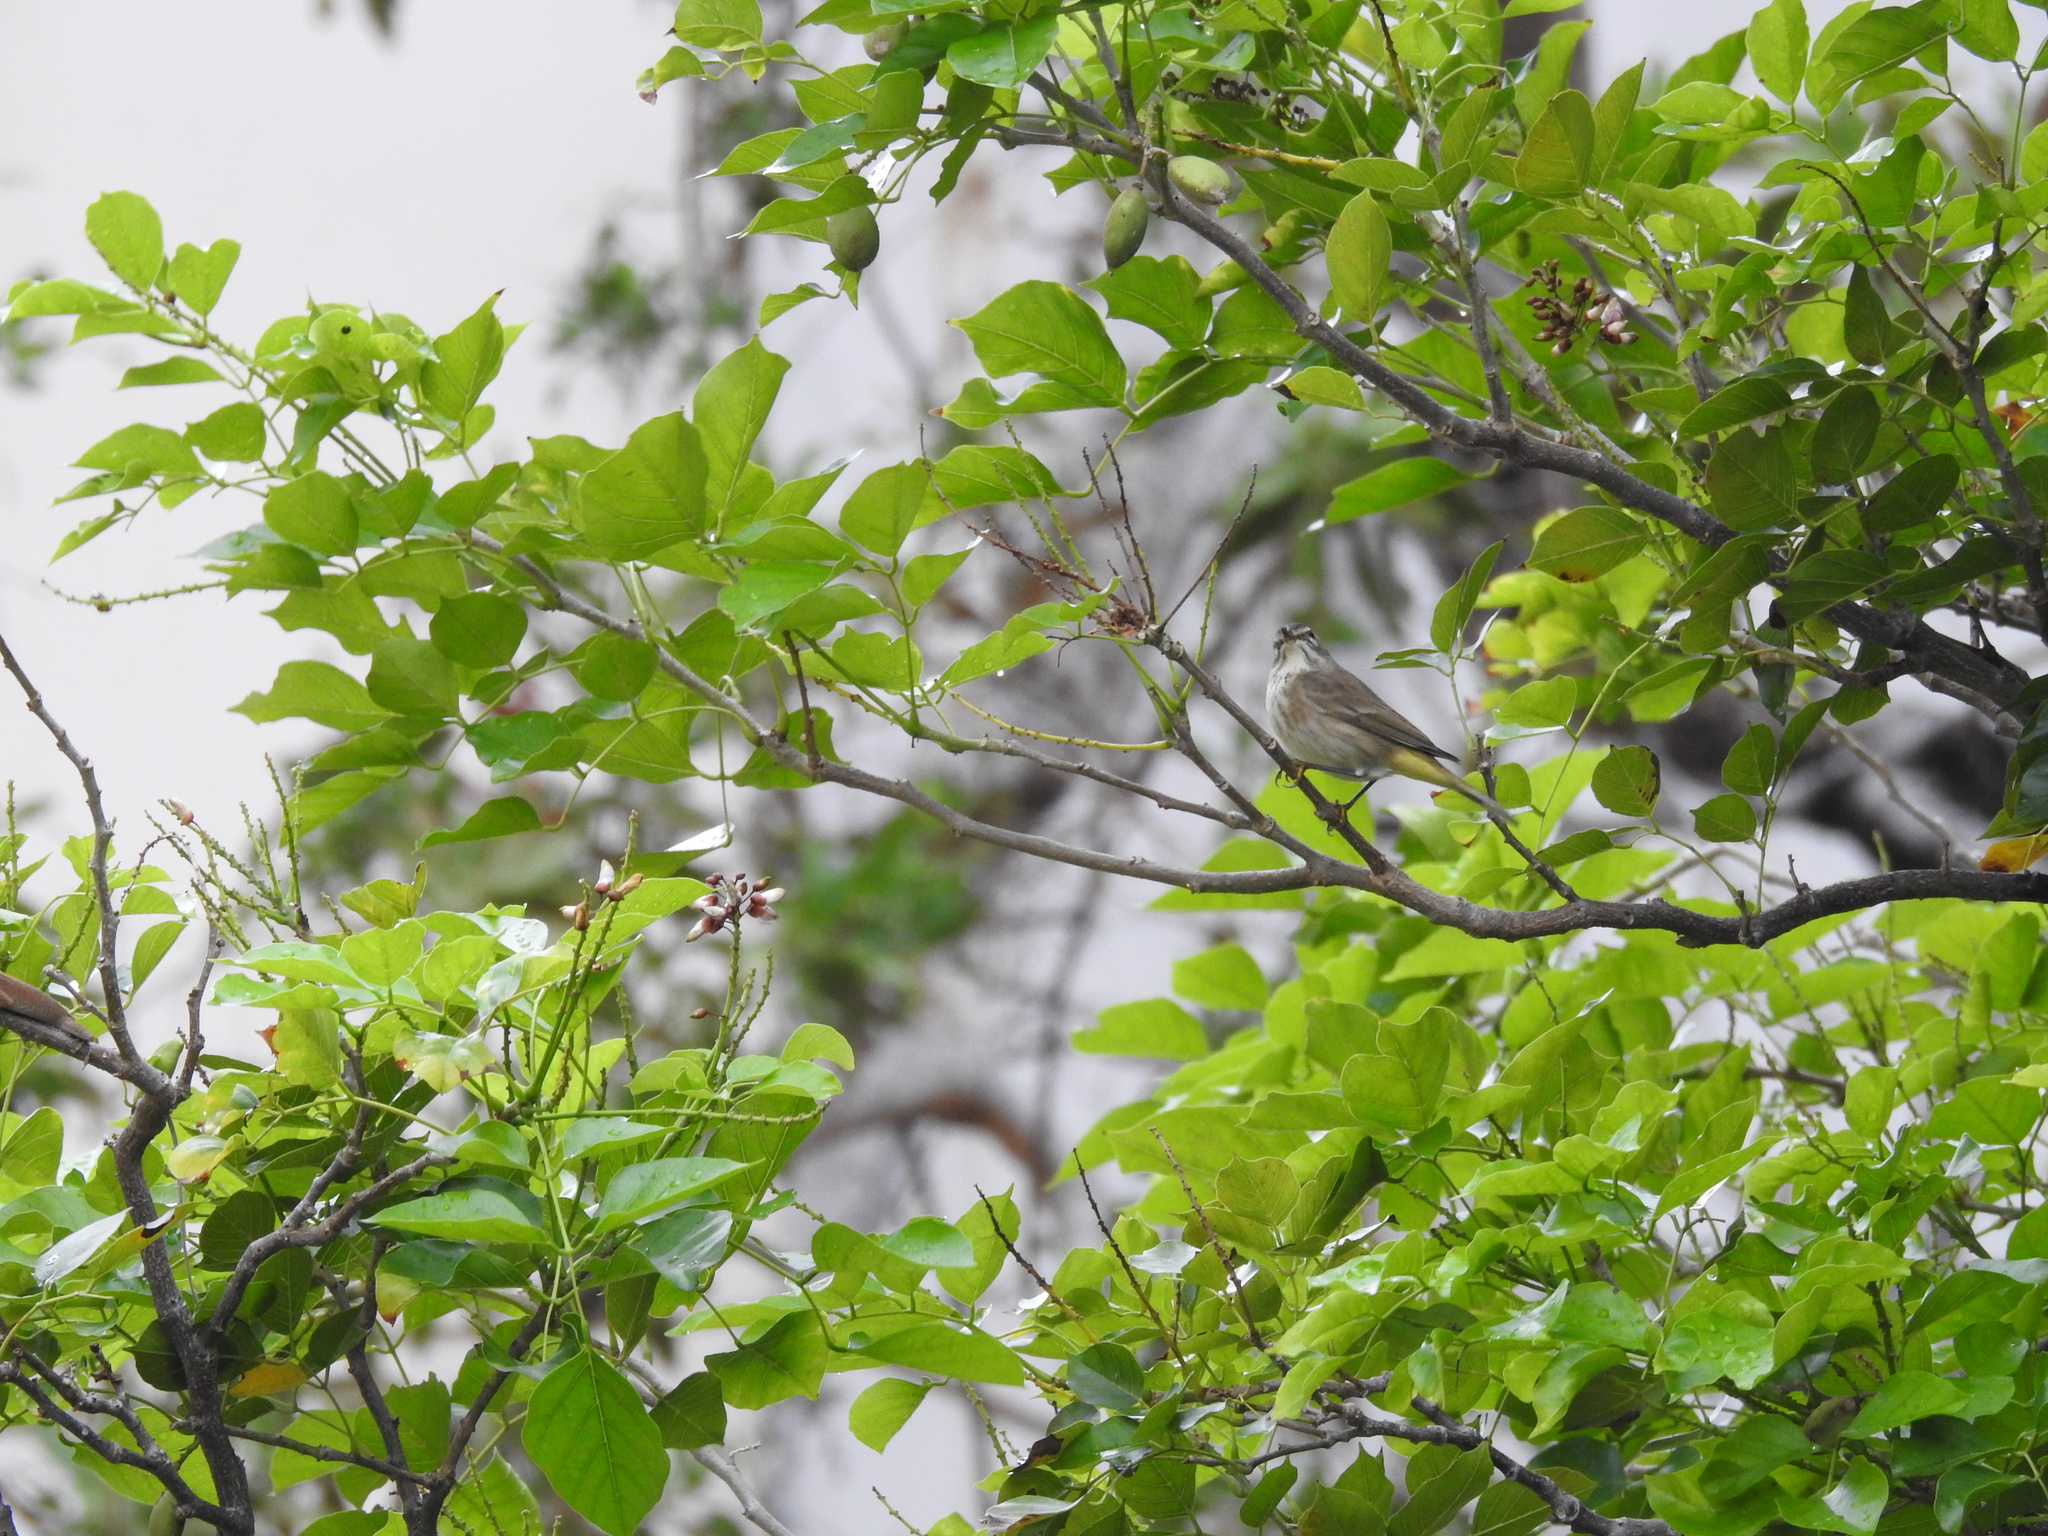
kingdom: Animalia
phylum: Chordata
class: Aves
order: Passeriformes
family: Parulidae
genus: Setophaga
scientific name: Setophaga palmarum
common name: Palm warbler
